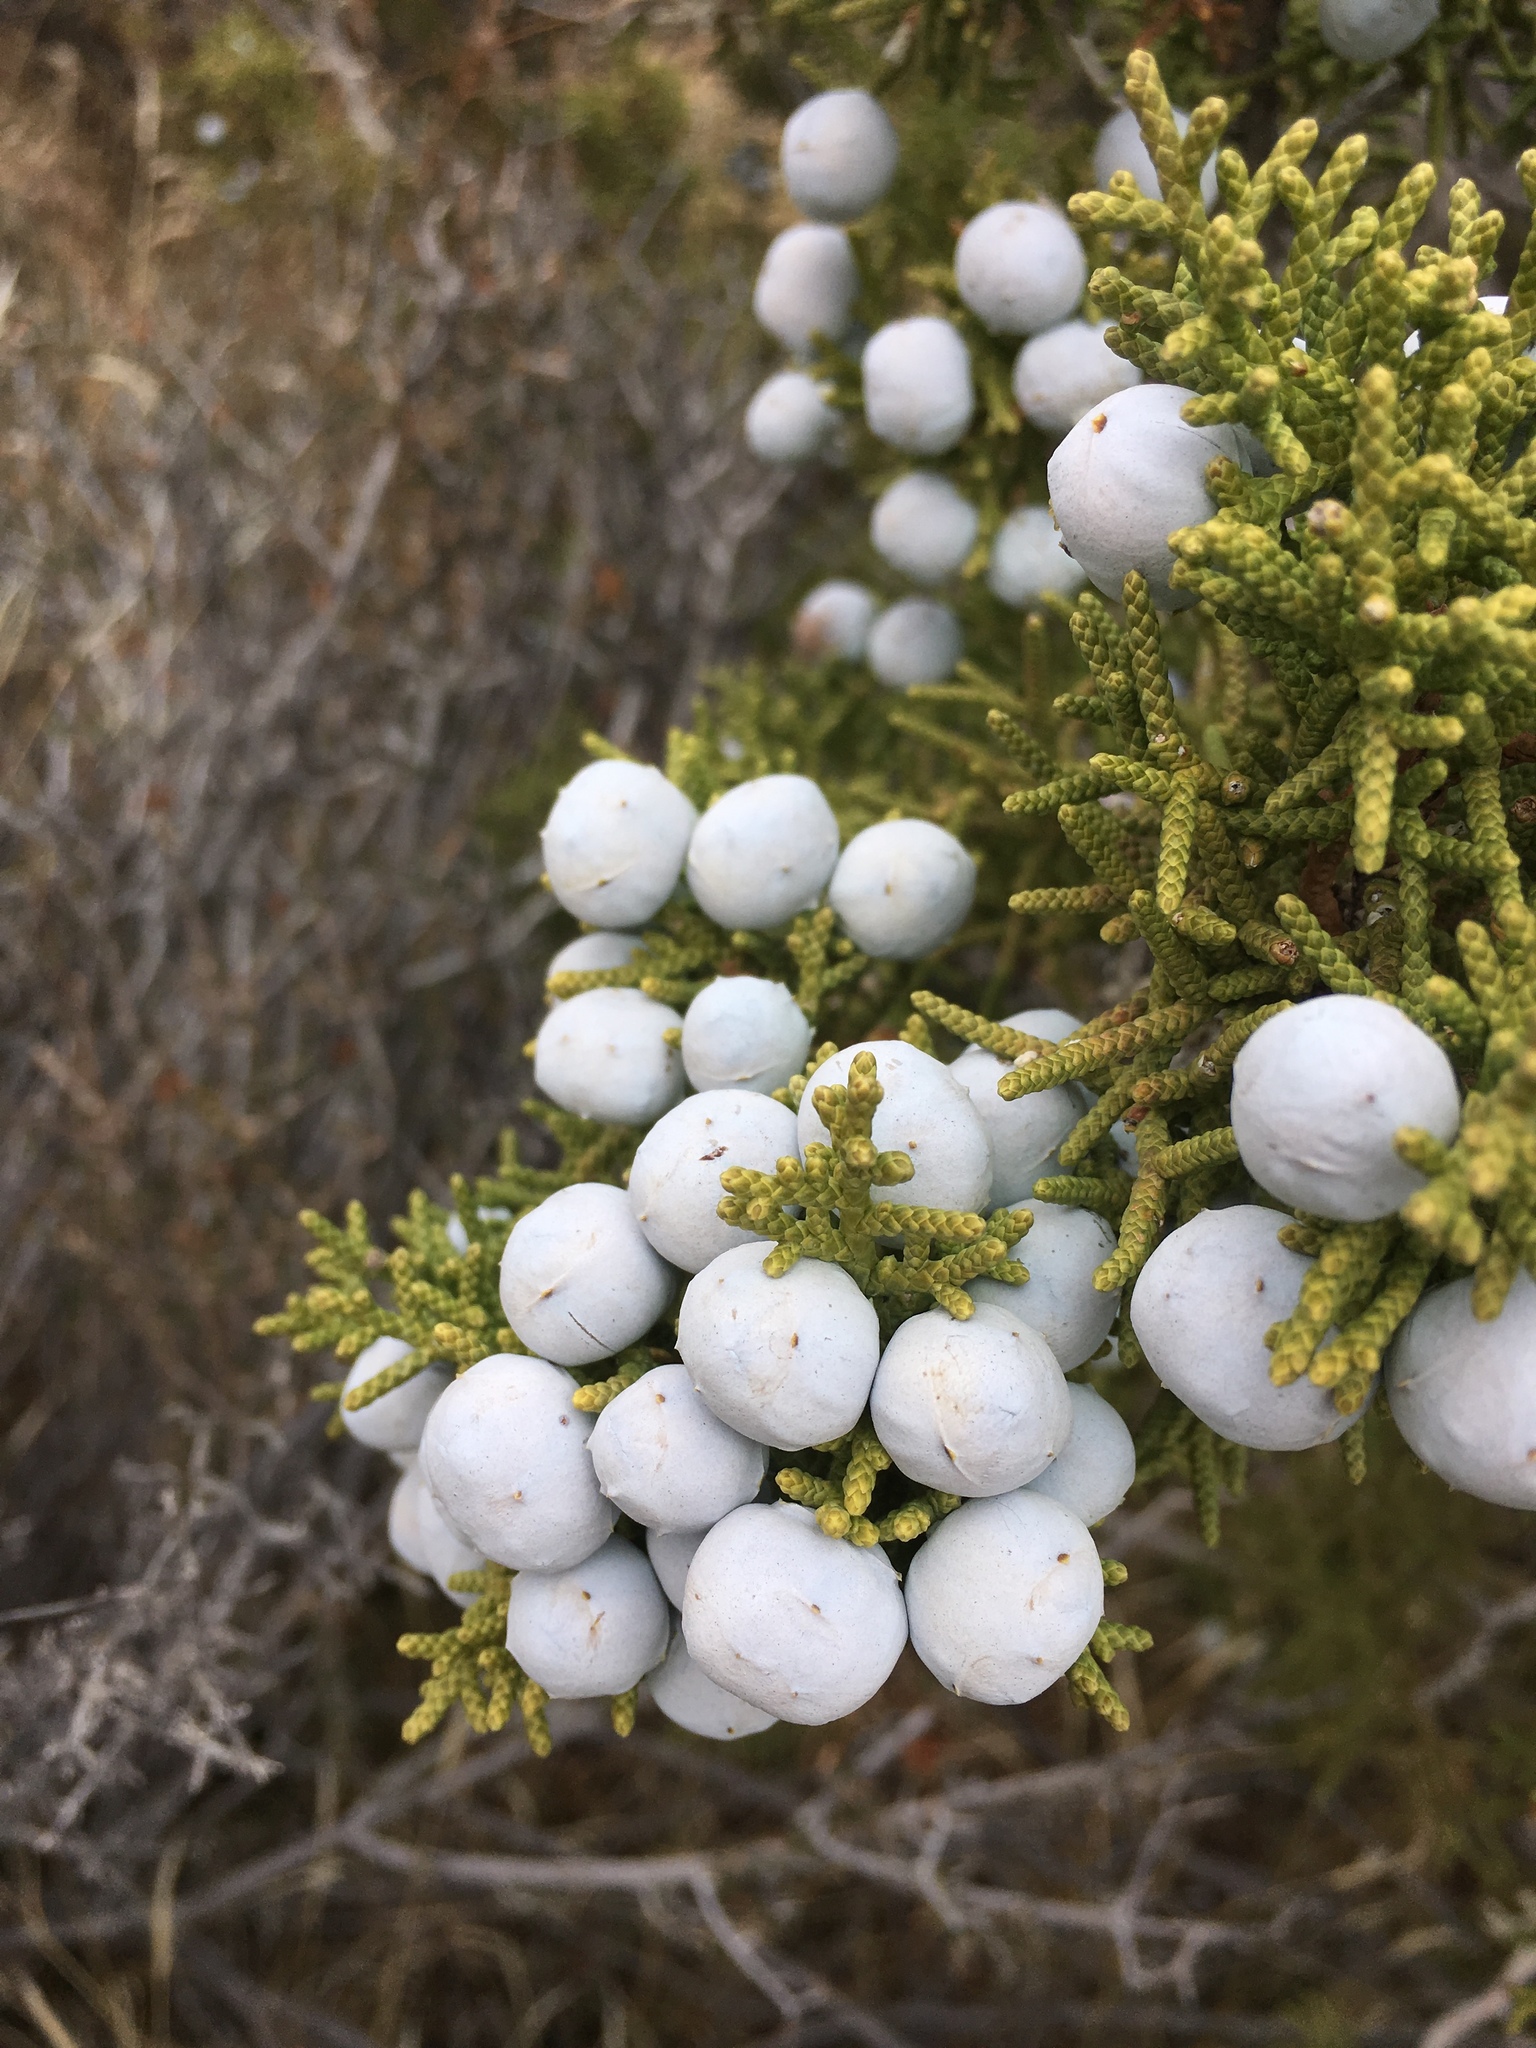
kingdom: Plantae
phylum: Tracheophyta
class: Pinopsida
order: Pinales
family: Cupressaceae
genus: Juniperus
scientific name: Juniperus californica
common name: California juniper
